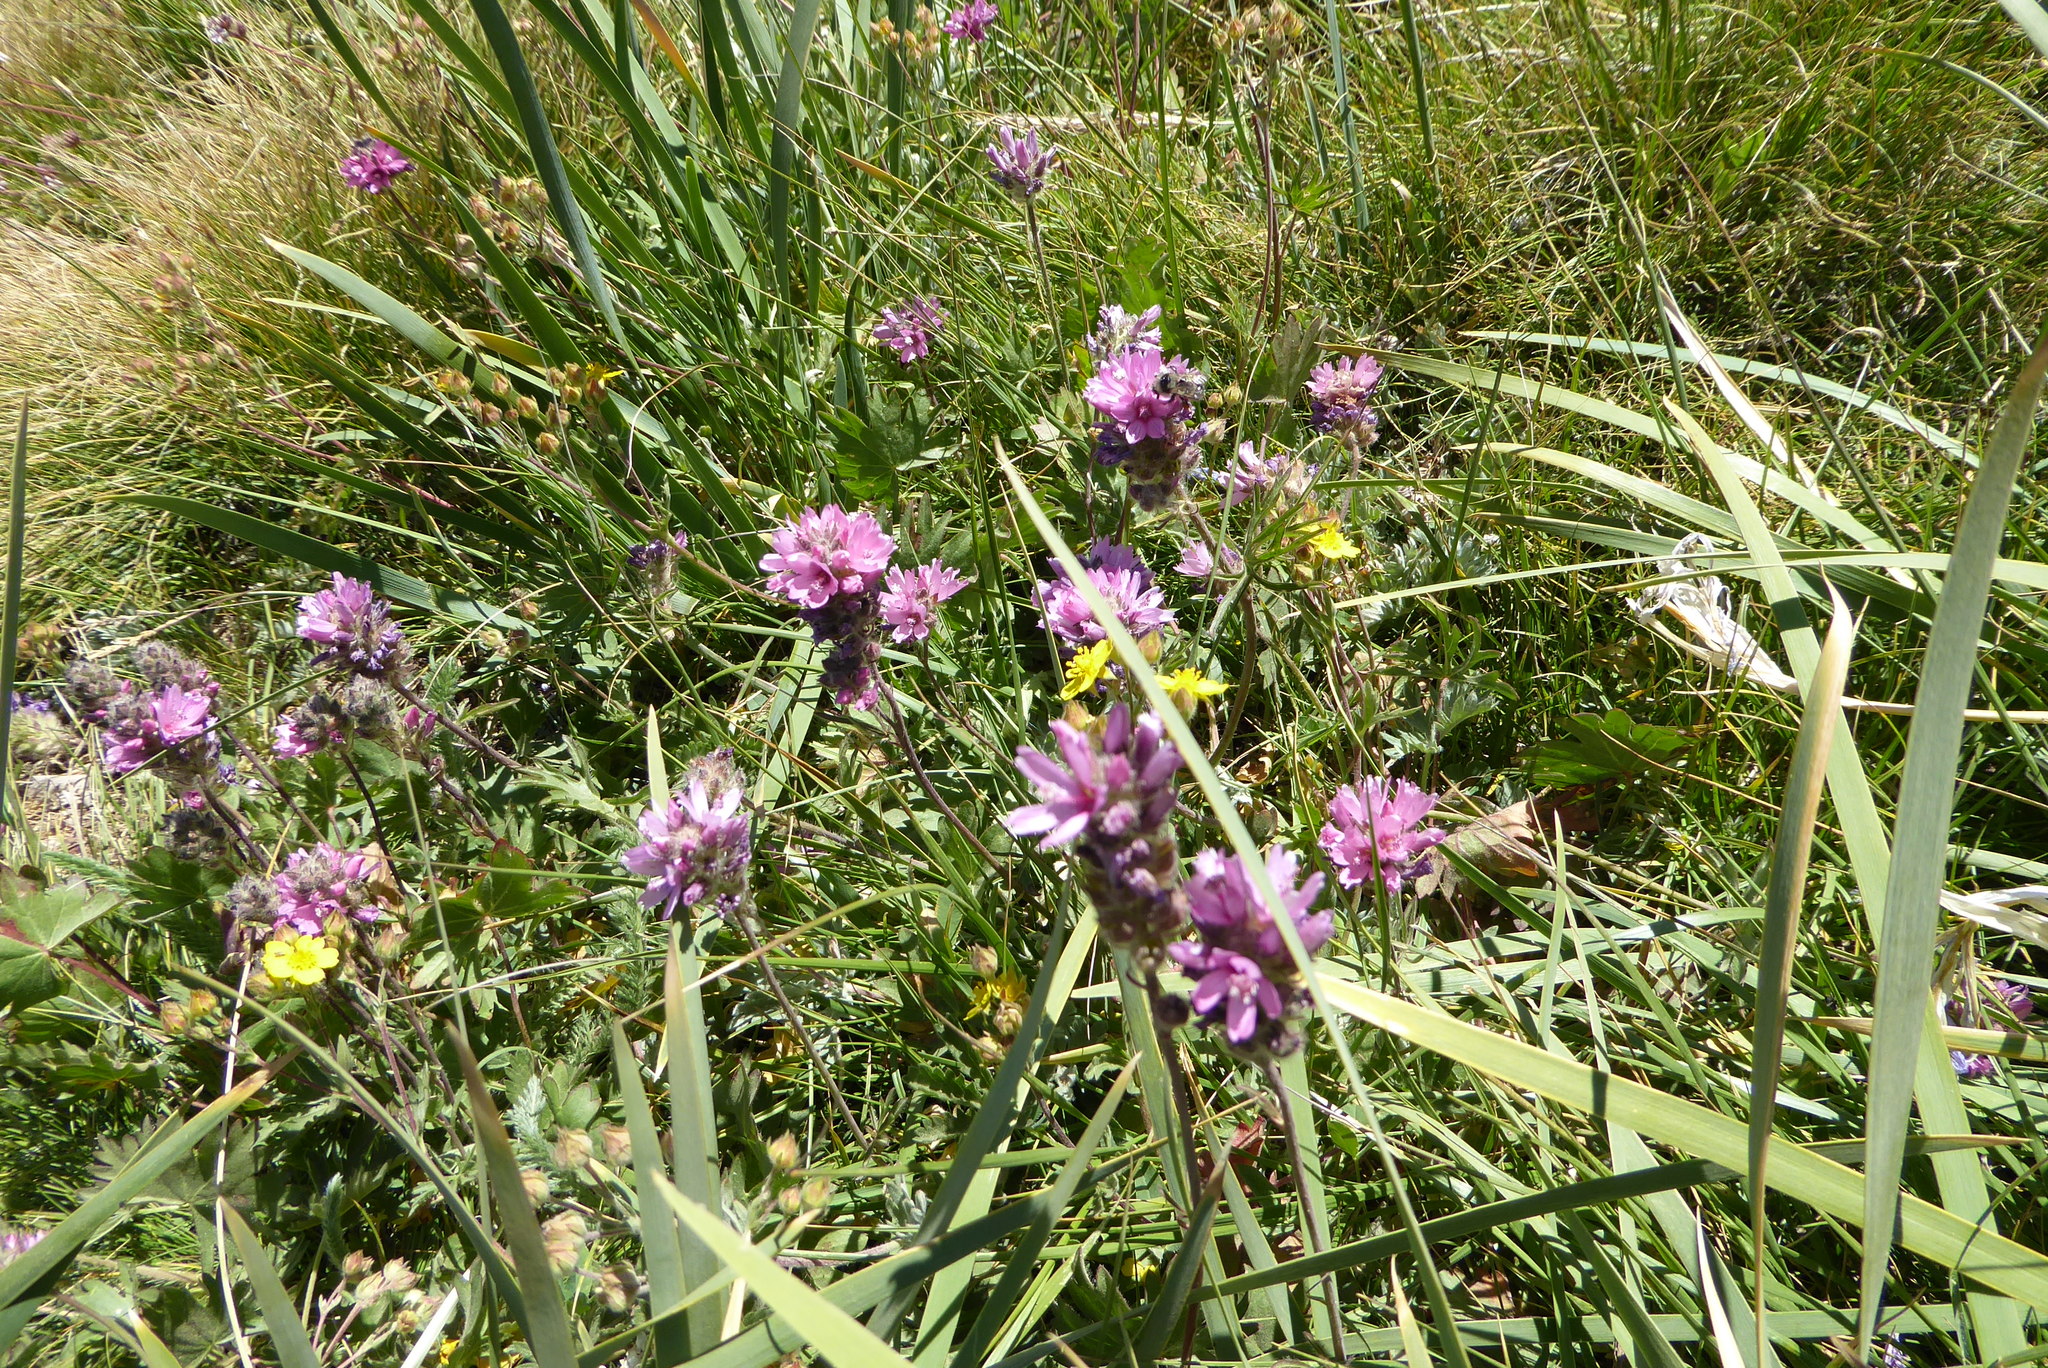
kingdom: Plantae
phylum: Tracheophyta
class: Magnoliopsida
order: Malvales
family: Malvaceae
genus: Sidalcea
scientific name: Sidalcea oregana
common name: Oregon checker-mallow
